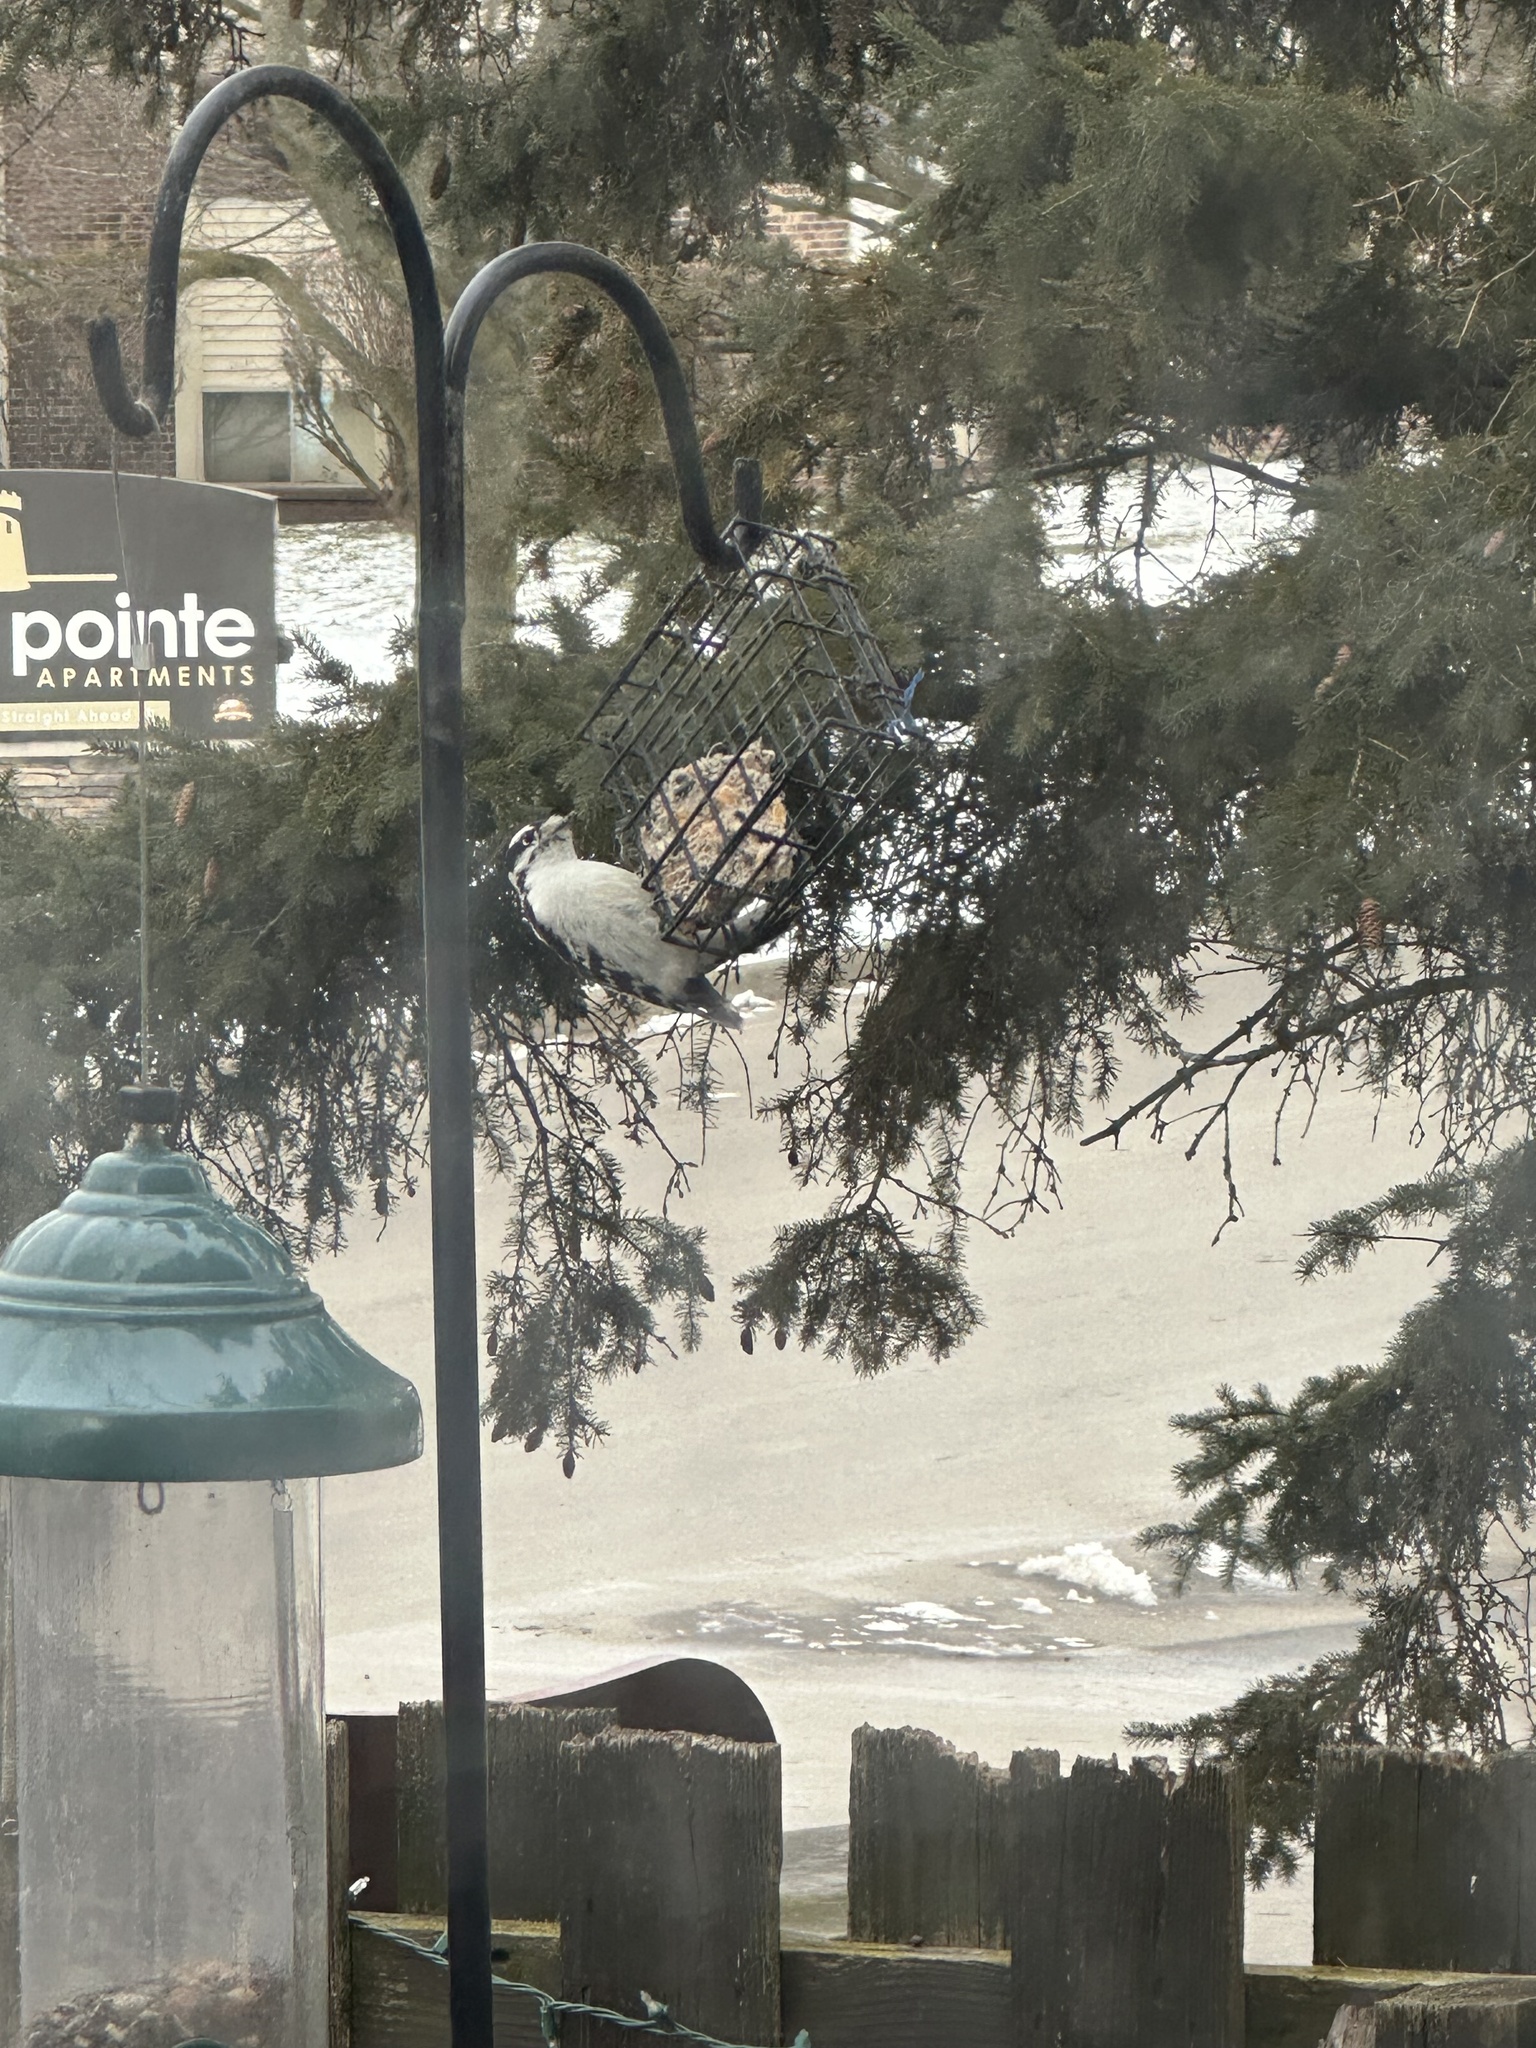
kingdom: Animalia
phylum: Chordata
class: Aves
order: Piciformes
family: Picidae
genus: Dryobates
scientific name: Dryobates pubescens
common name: Downy woodpecker
